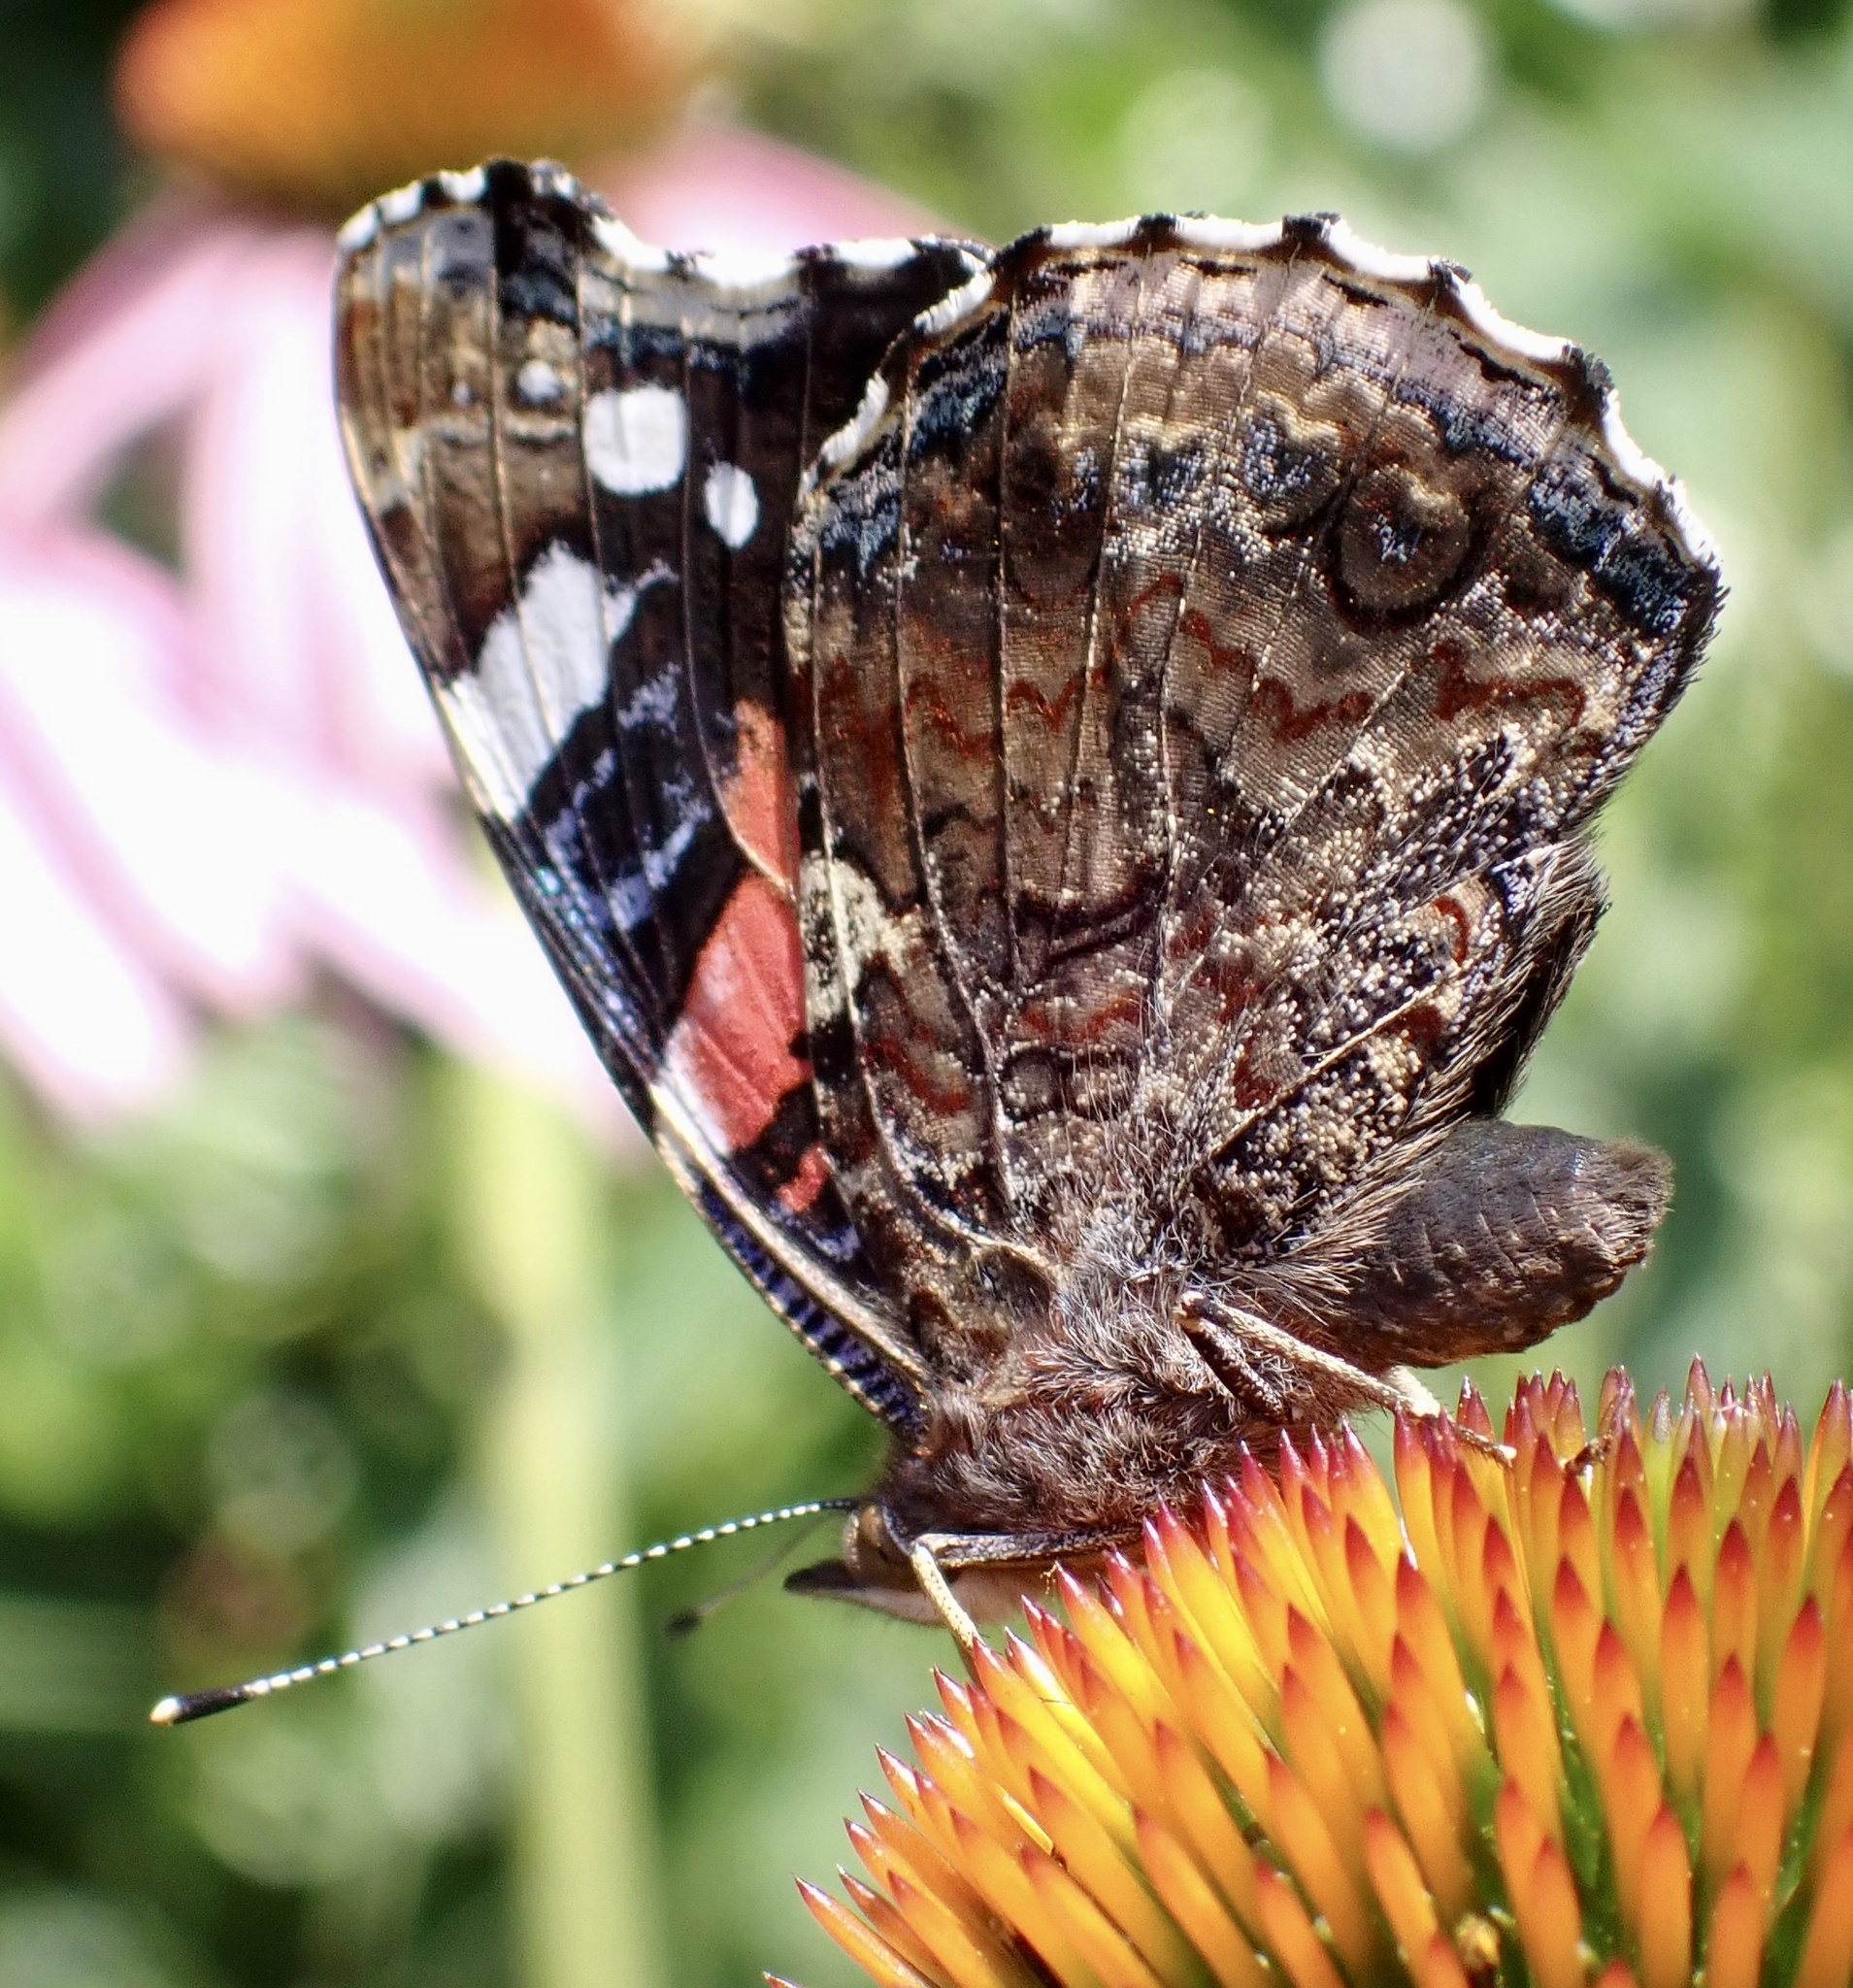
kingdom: Animalia
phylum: Arthropoda
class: Insecta
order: Lepidoptera
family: Nymphalidae
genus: Vanessa
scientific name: Vanessa atalanta
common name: Red admiral
